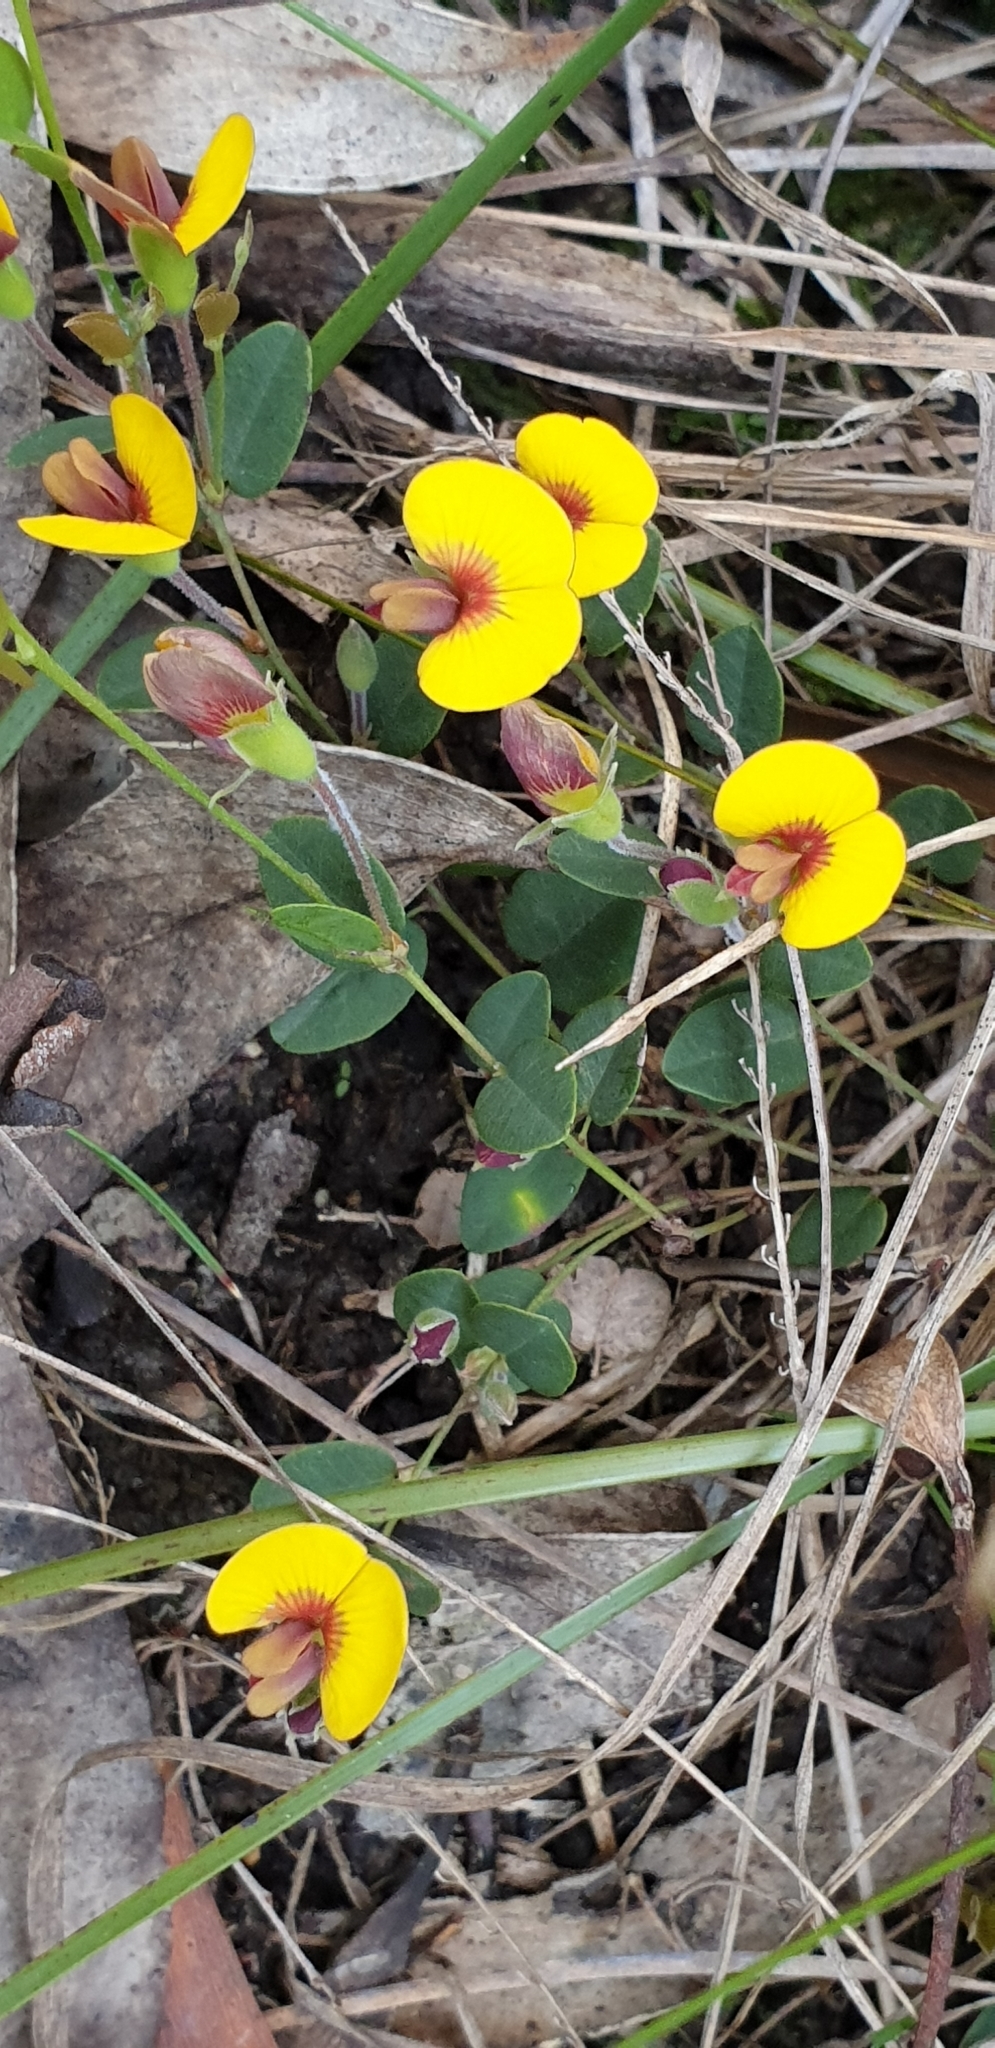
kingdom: Plantae
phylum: Tracheophyta
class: Magnoliopsida
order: Fabales
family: Fabaceae
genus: Bossiaea
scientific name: Bossiaea prostrata
